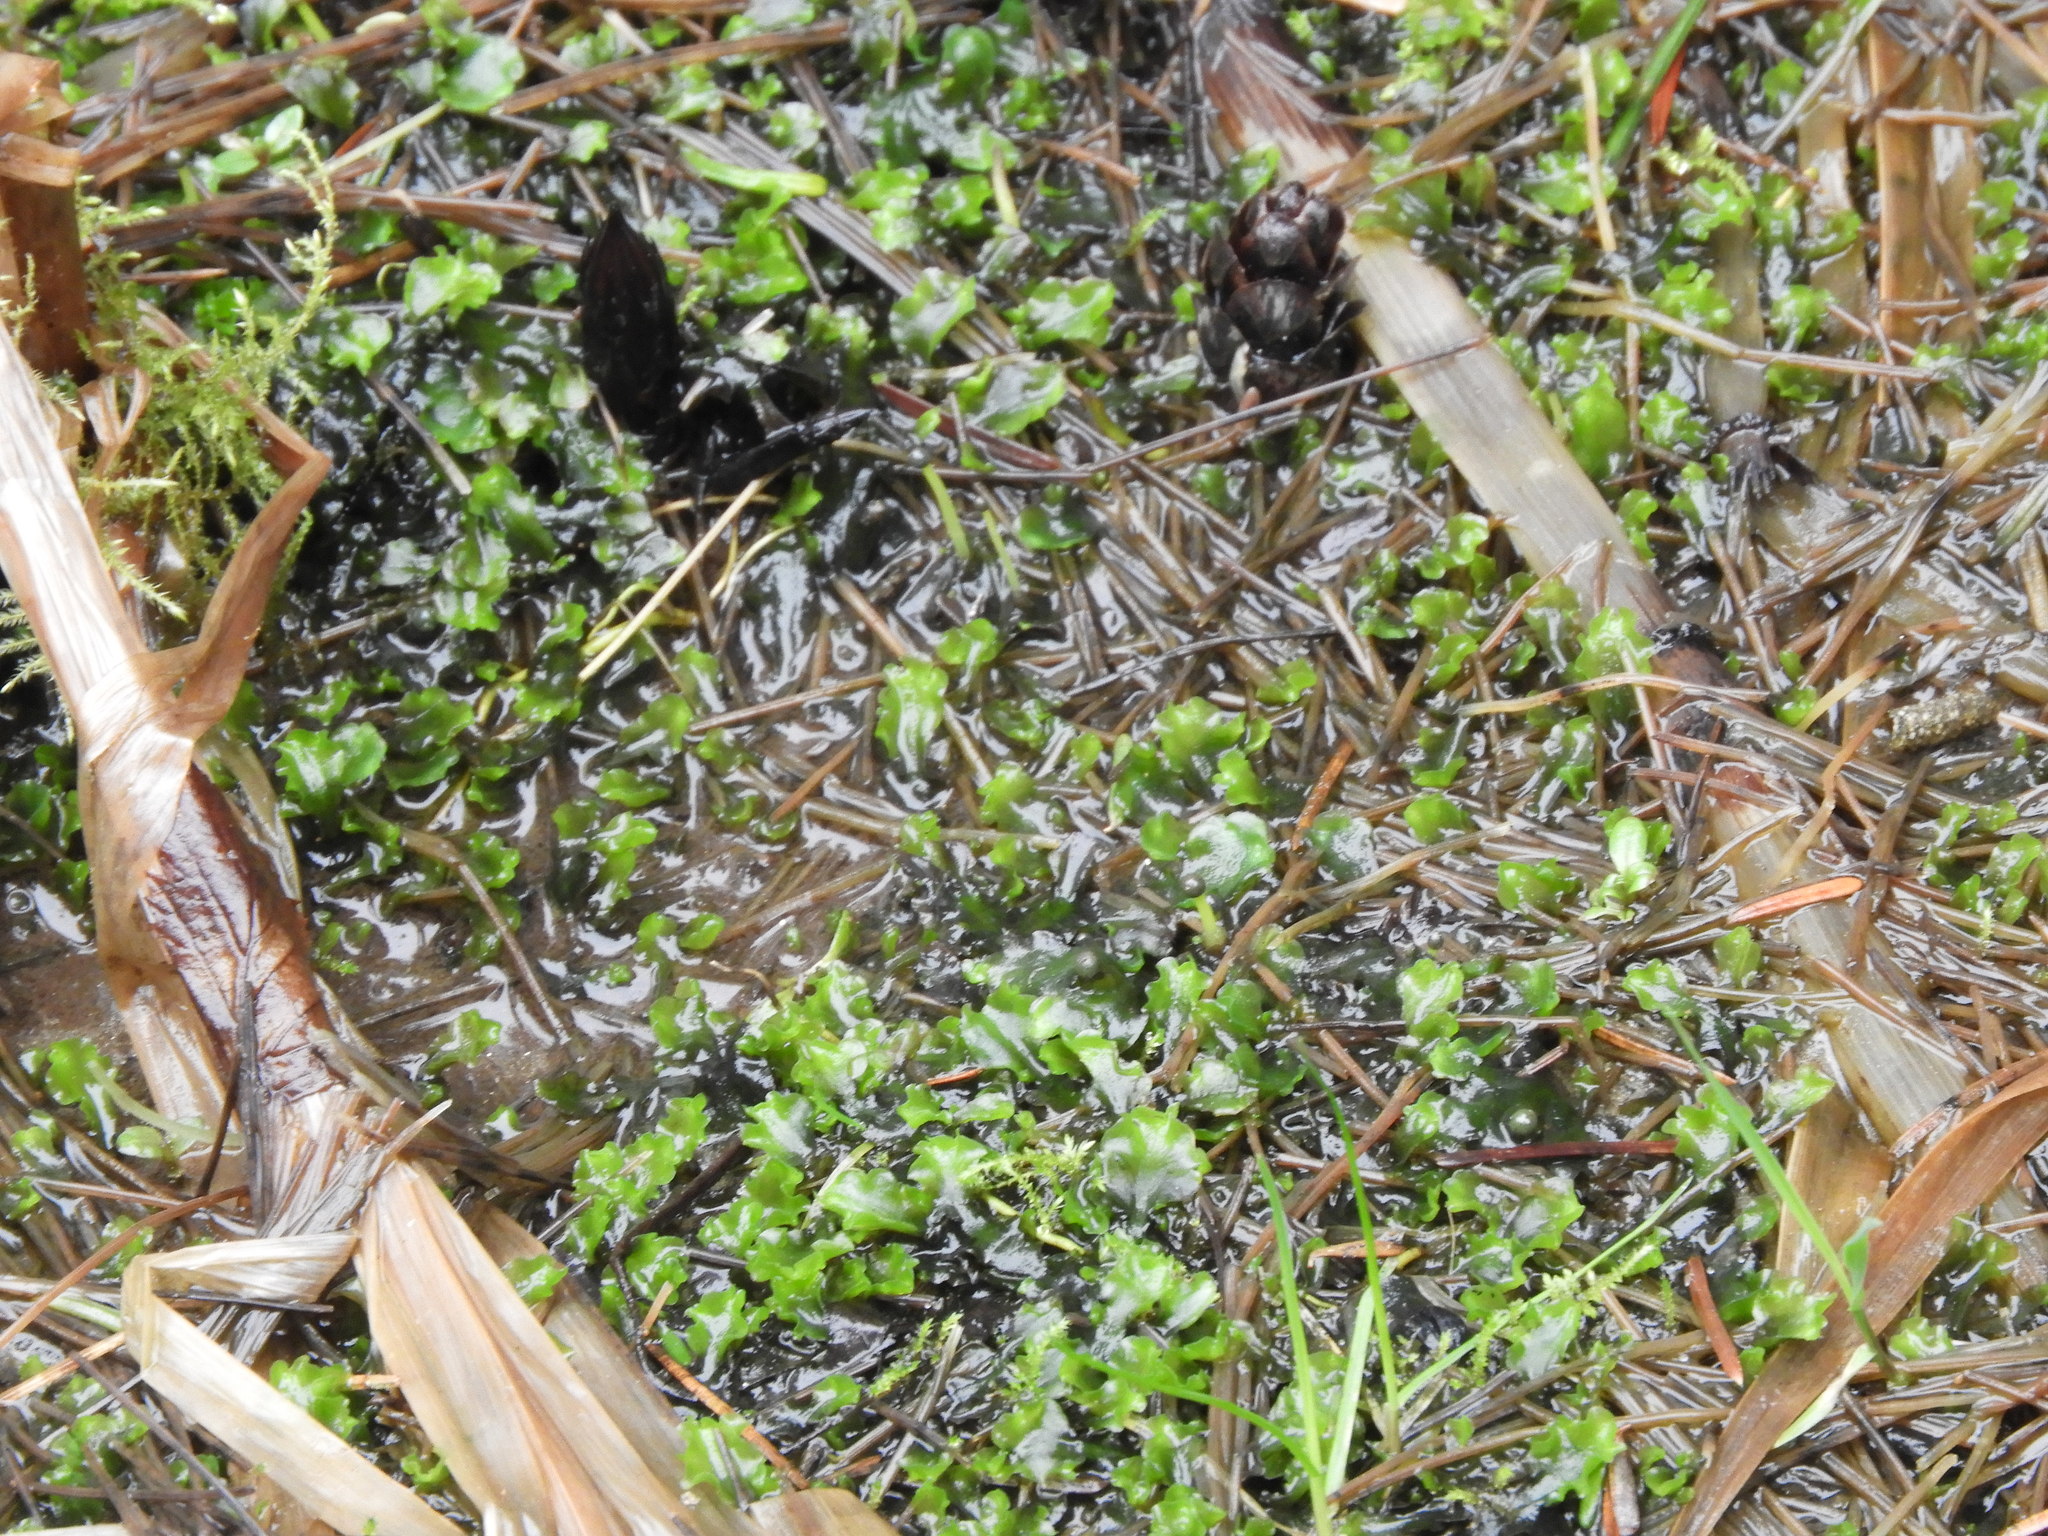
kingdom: Plantae
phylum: Marchantiophyta
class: Jungermanniopsida
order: Pelliales
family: Pelliaceae
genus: Pellia
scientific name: Pellia neesiana
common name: Nees  pellia
